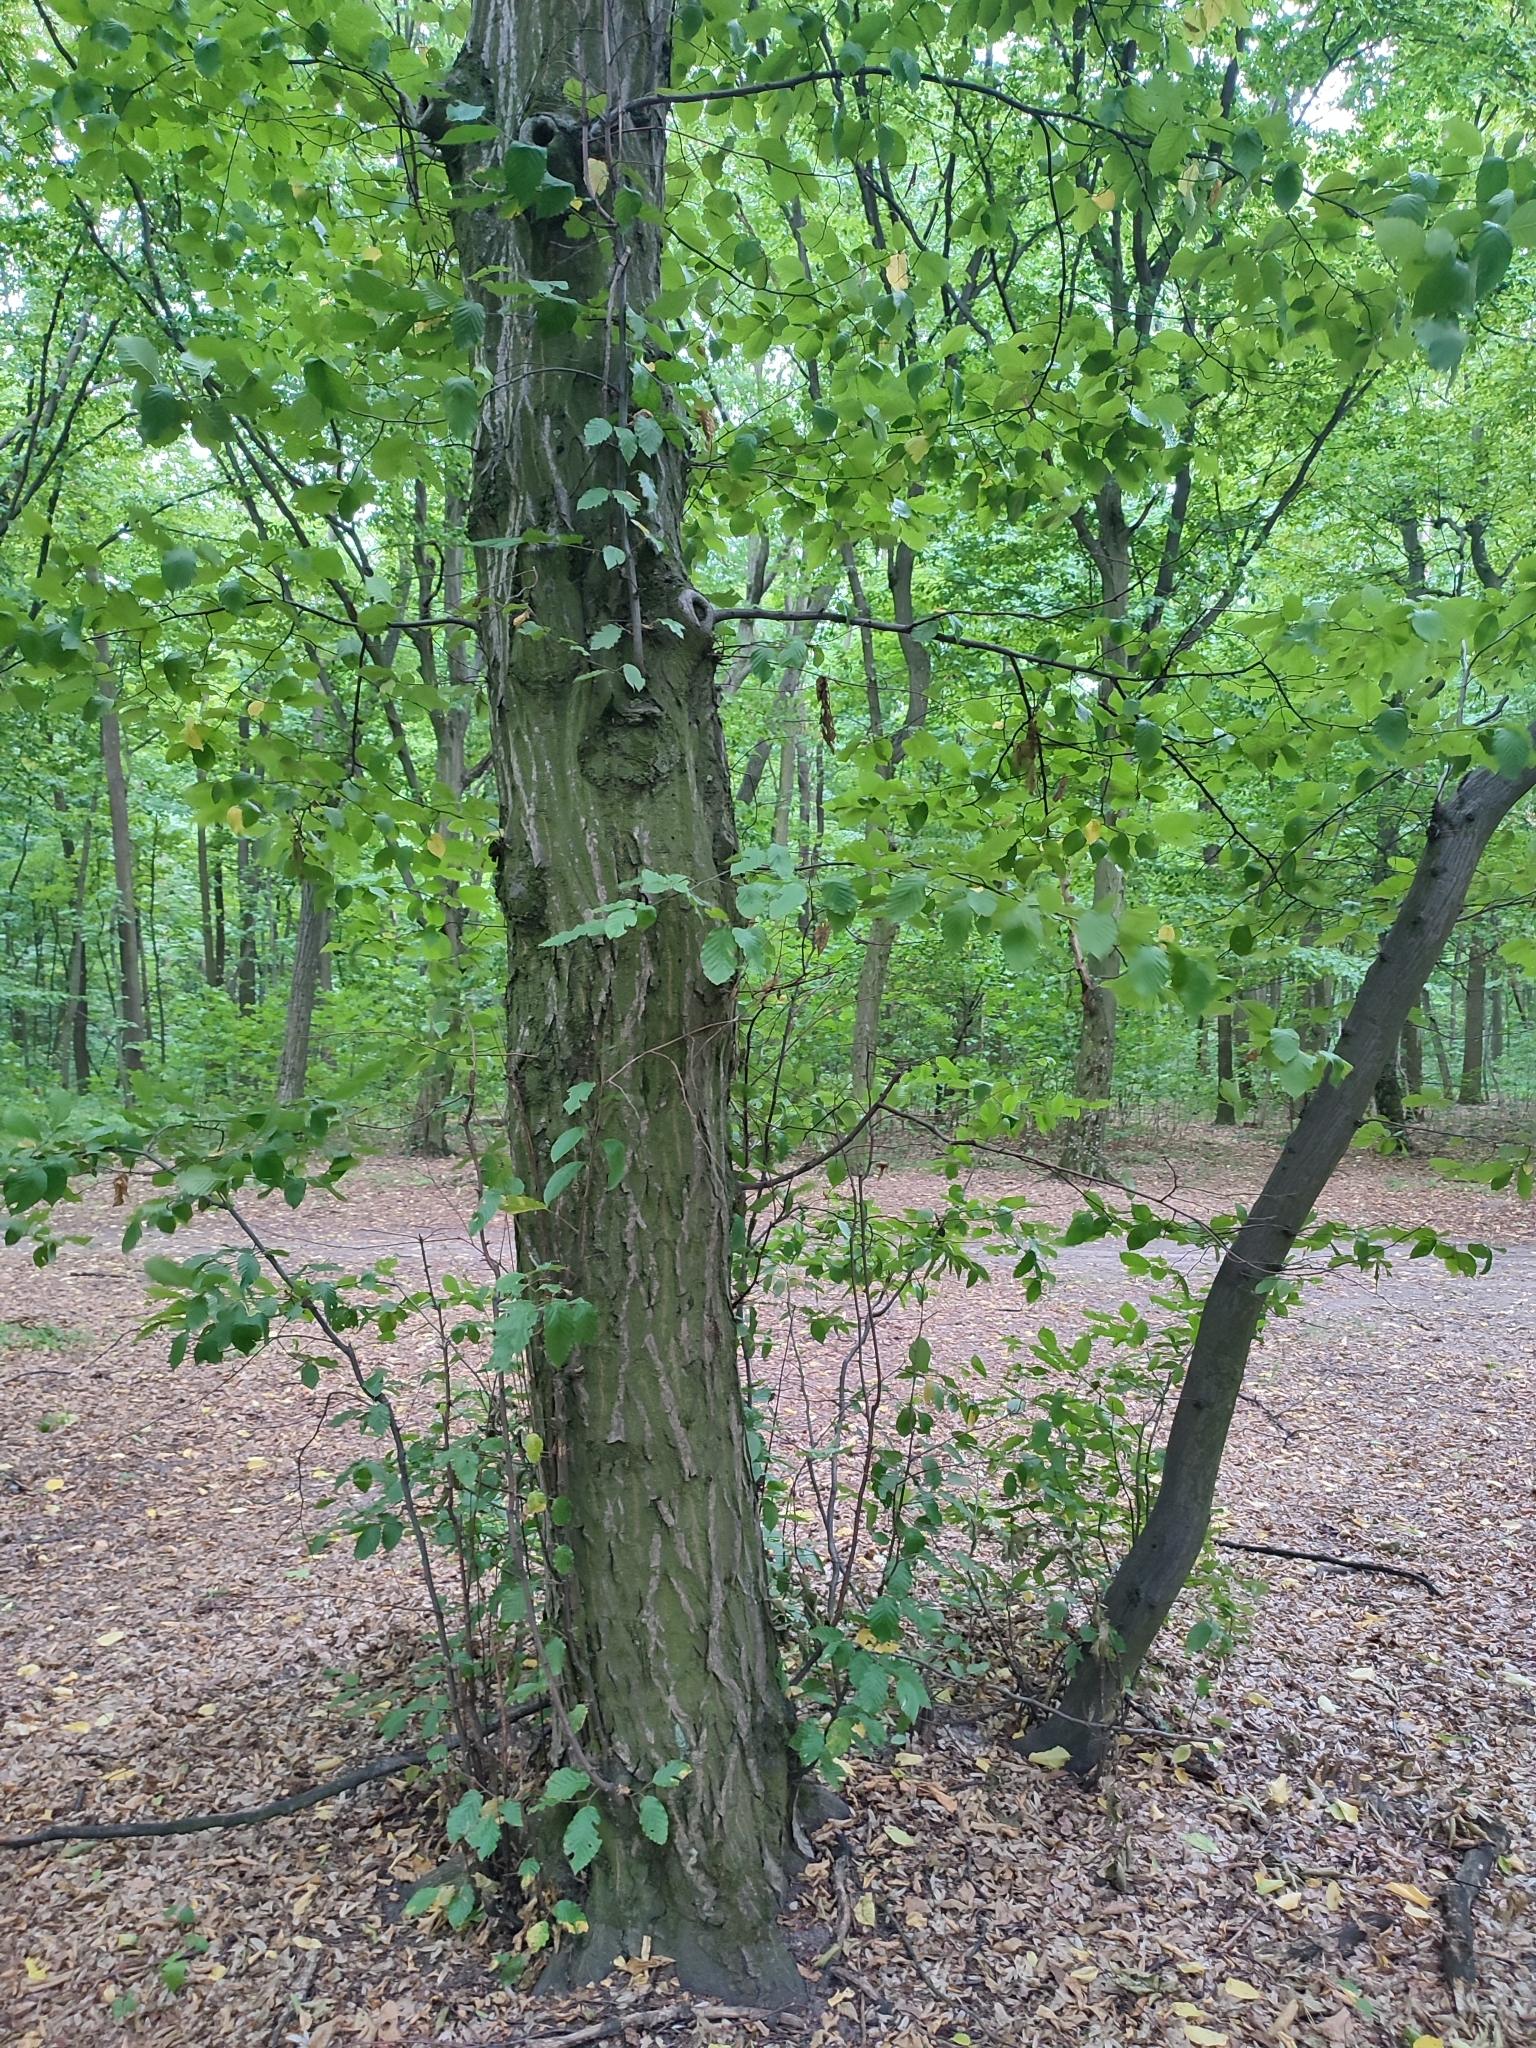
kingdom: Plantae
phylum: Tracheophyta
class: Magnoliopsida
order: Fagales
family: Betulaceae
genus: Carpinus
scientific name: Carpinus betulus
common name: Hornbeam
